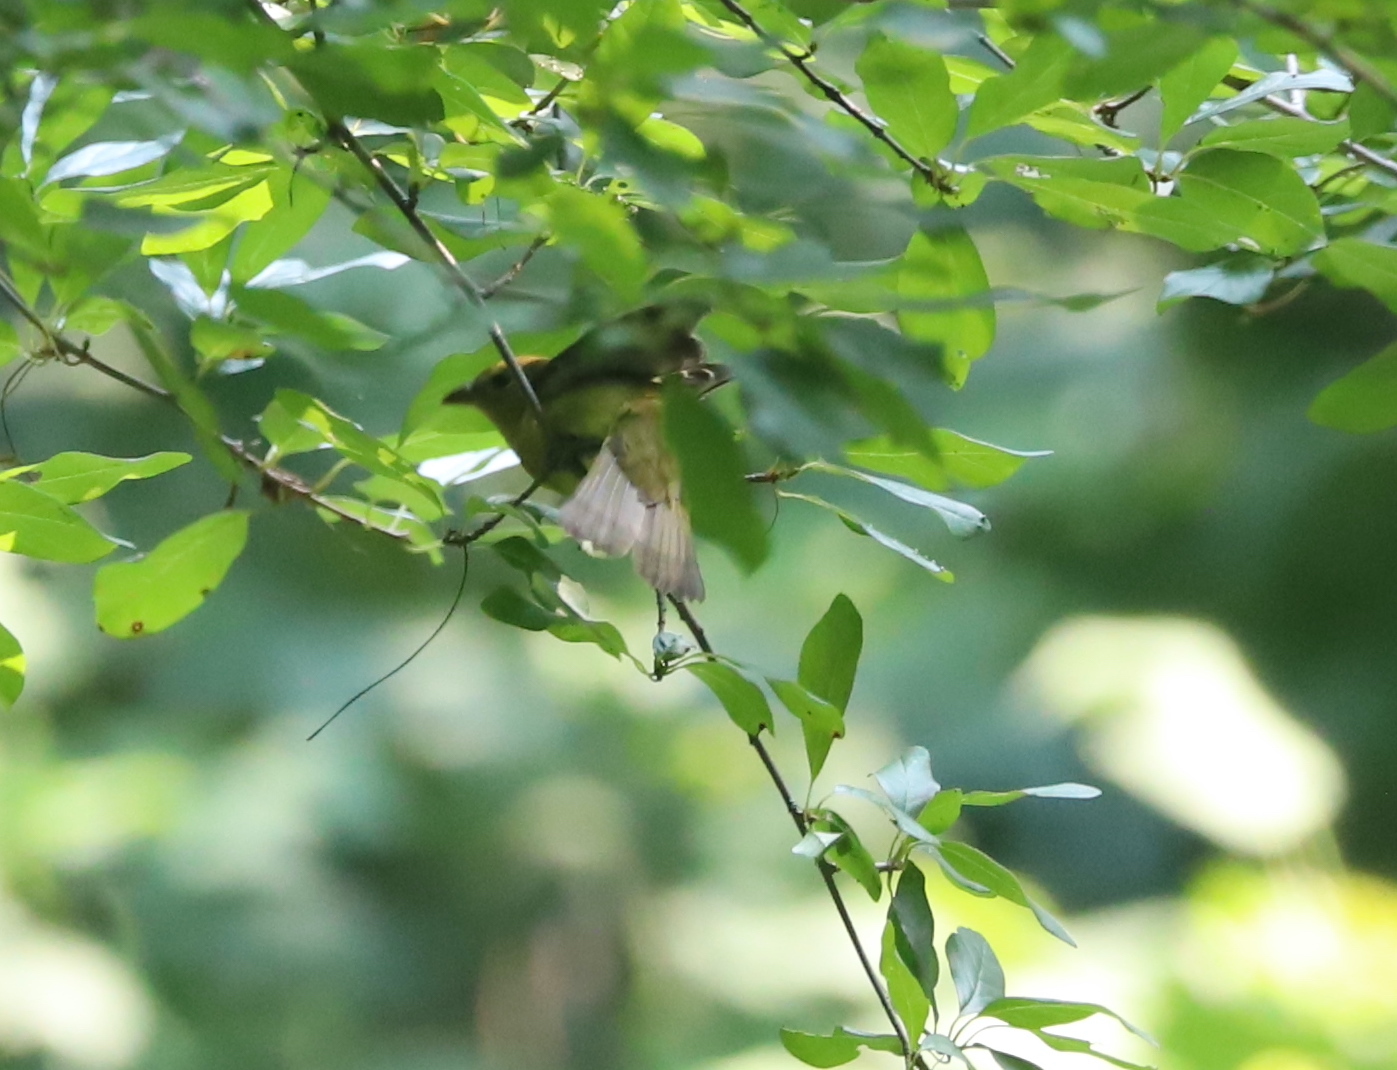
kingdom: Animalia
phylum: Chordata
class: Aves
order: Passeriformes
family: Cardinalidae
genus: Piranga
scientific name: Piranga olivacea
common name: Scarlet tanager
